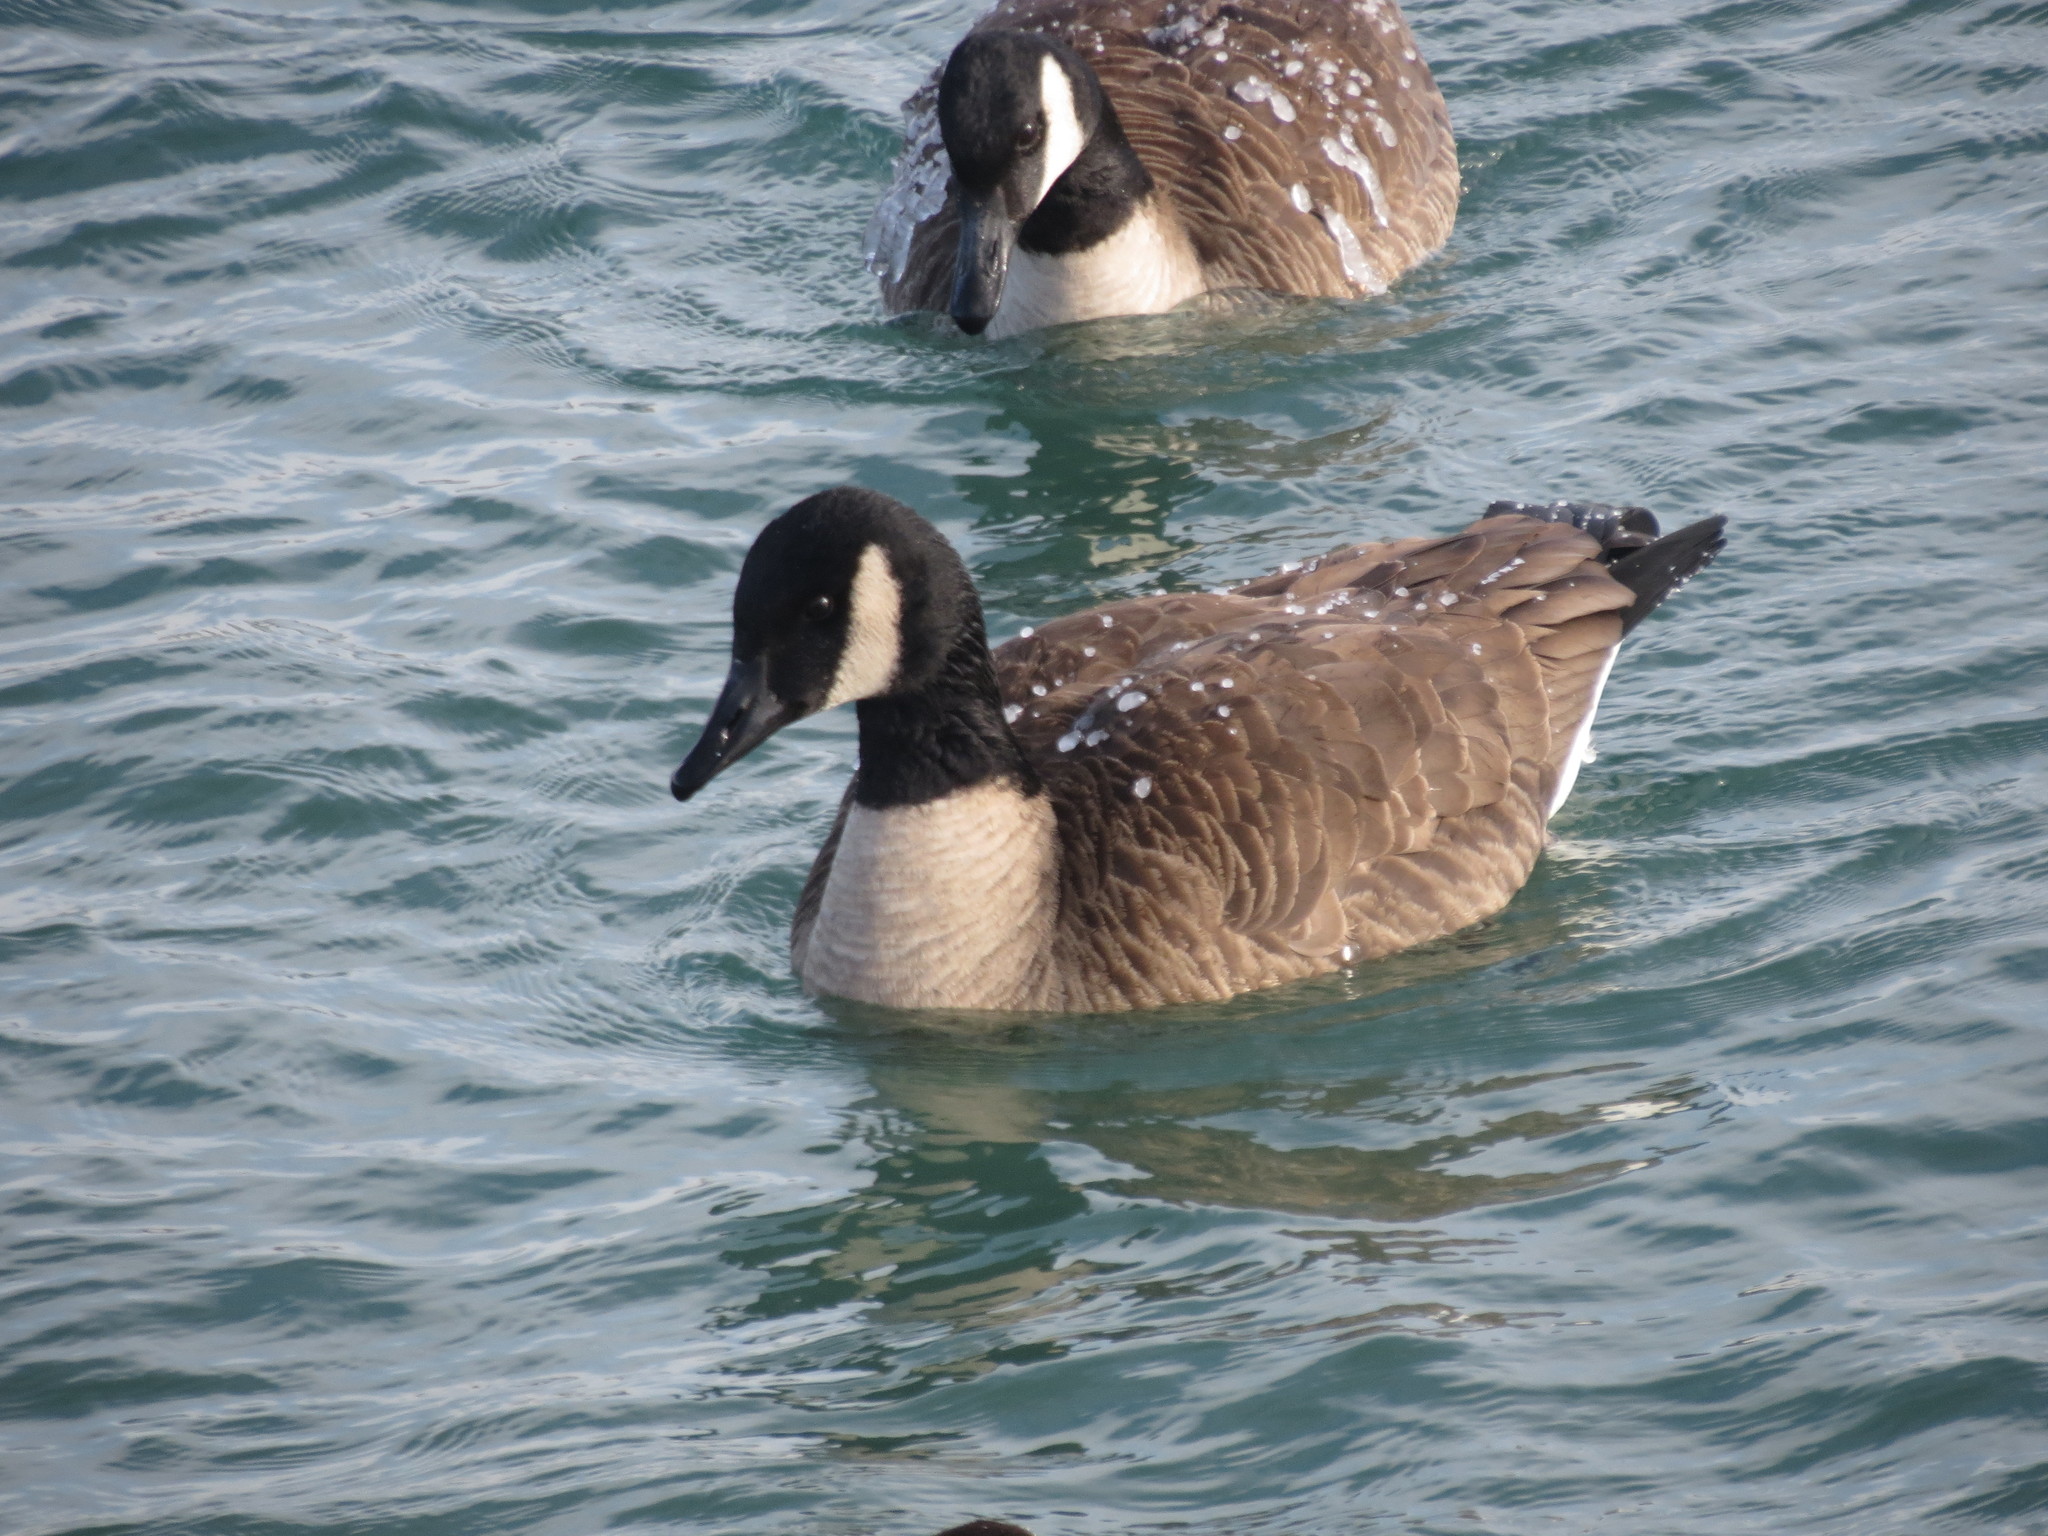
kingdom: Animalia
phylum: Chordata
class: Aves
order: Anseriformes
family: Anatidae
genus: Branta
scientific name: Branta canadensis
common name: Canada goose
